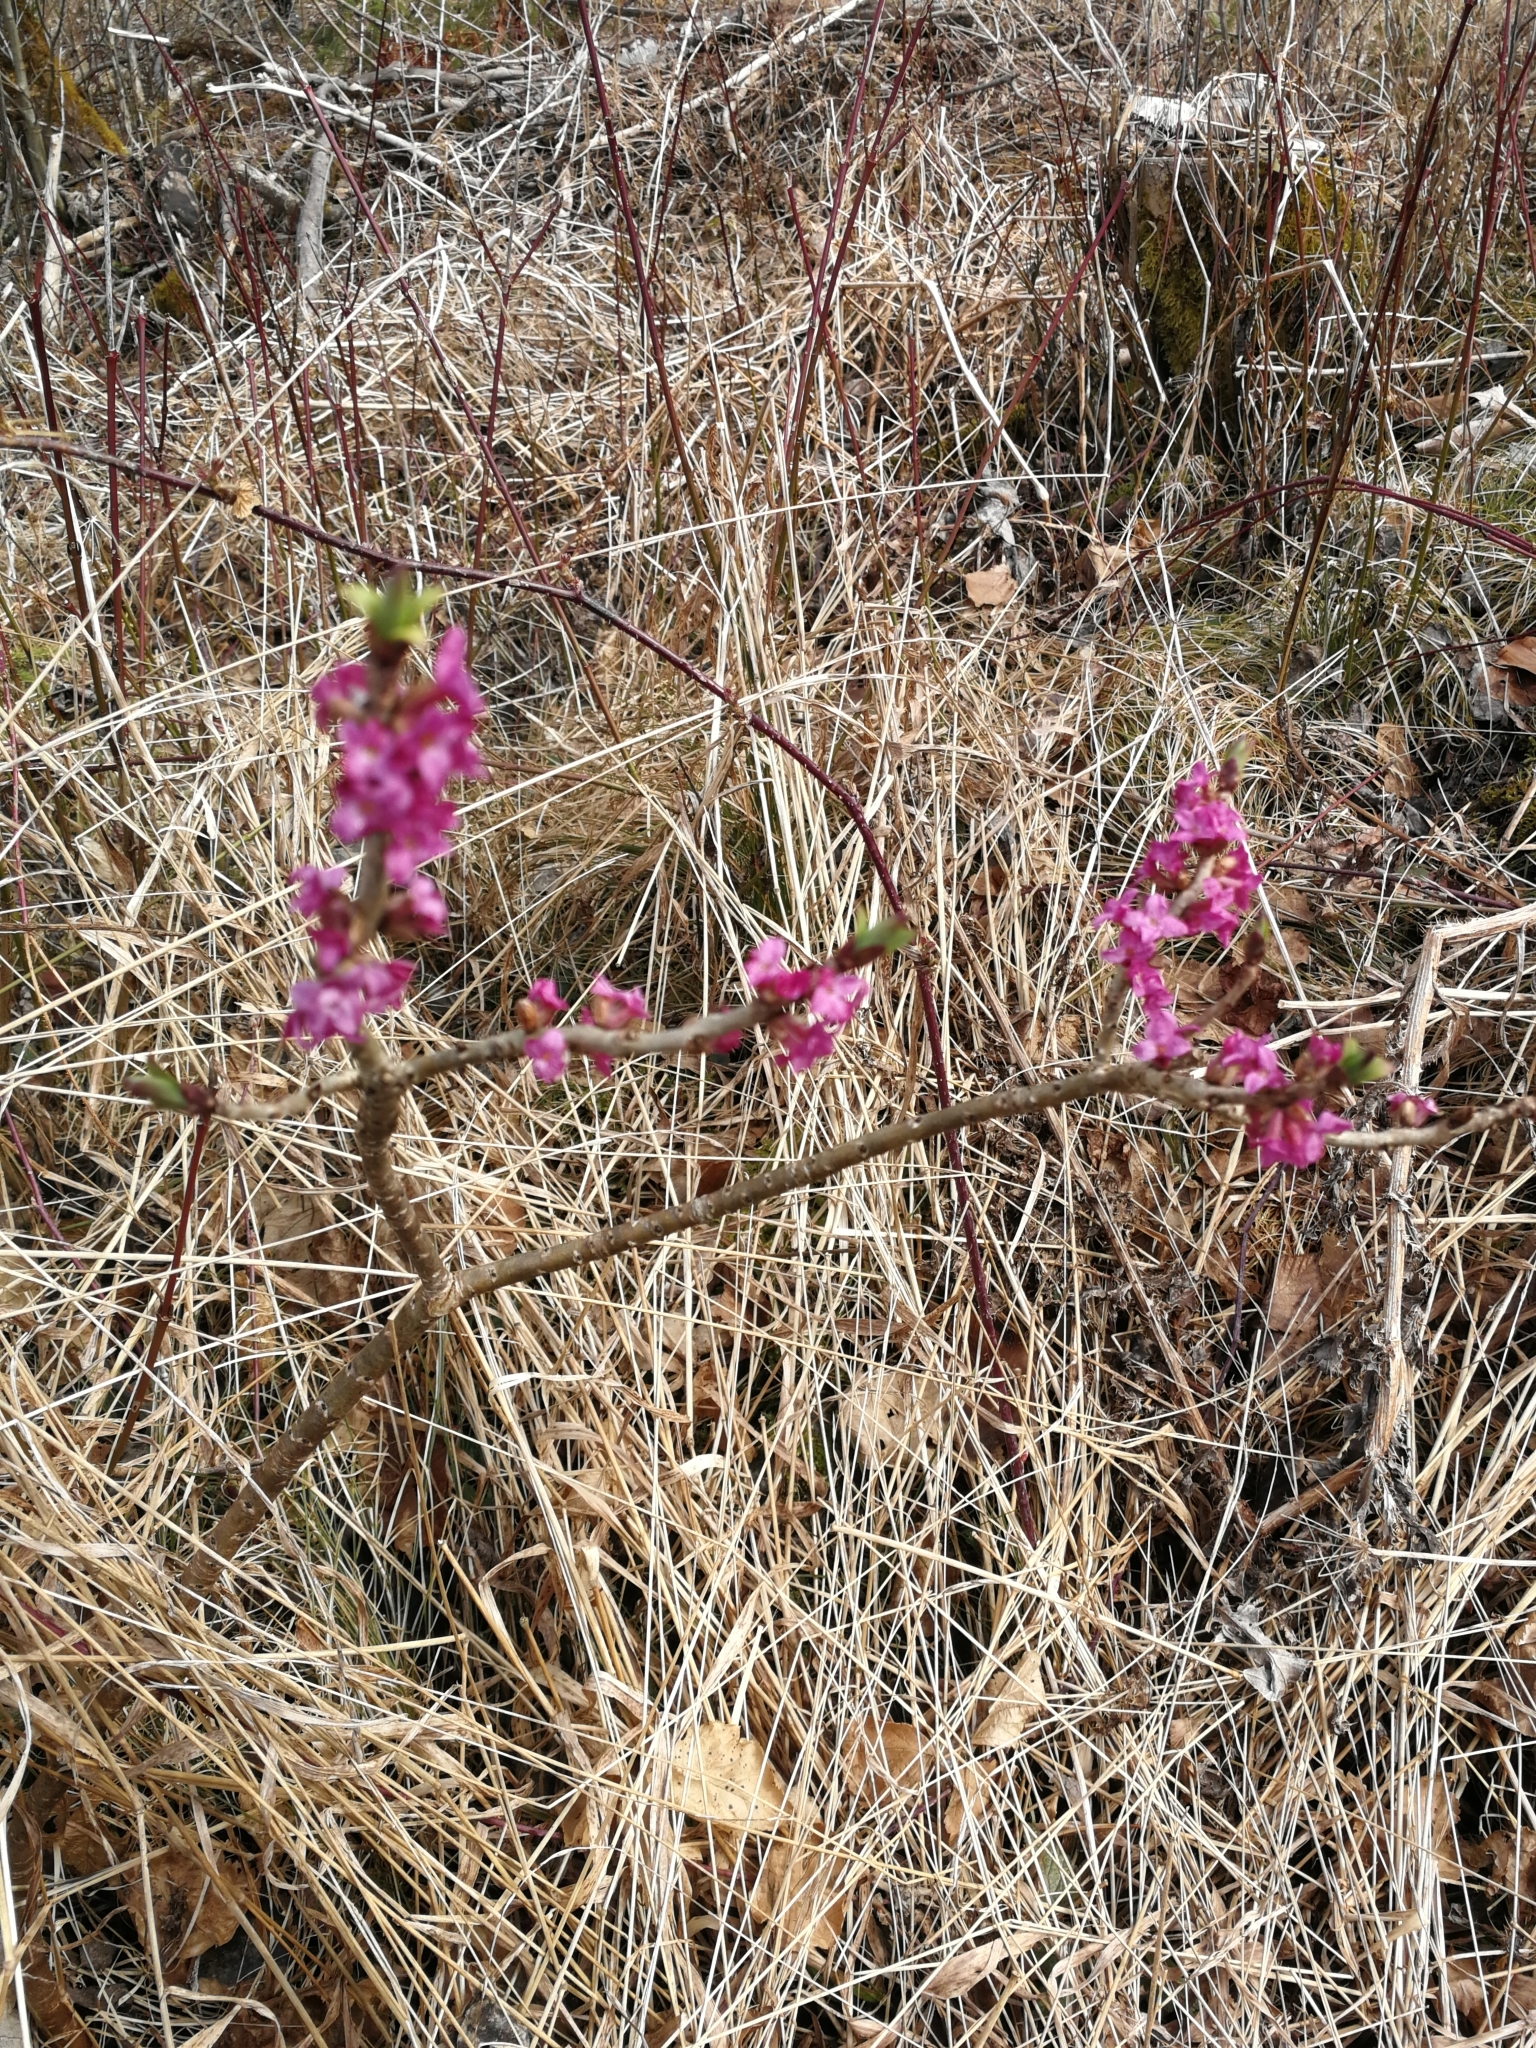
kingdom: Plantae
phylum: Tracheophyta
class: Magnoliopsida
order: Malvales
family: Thymelaeaceae
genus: Daphne
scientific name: Daphne mezereum
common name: Mezereon
